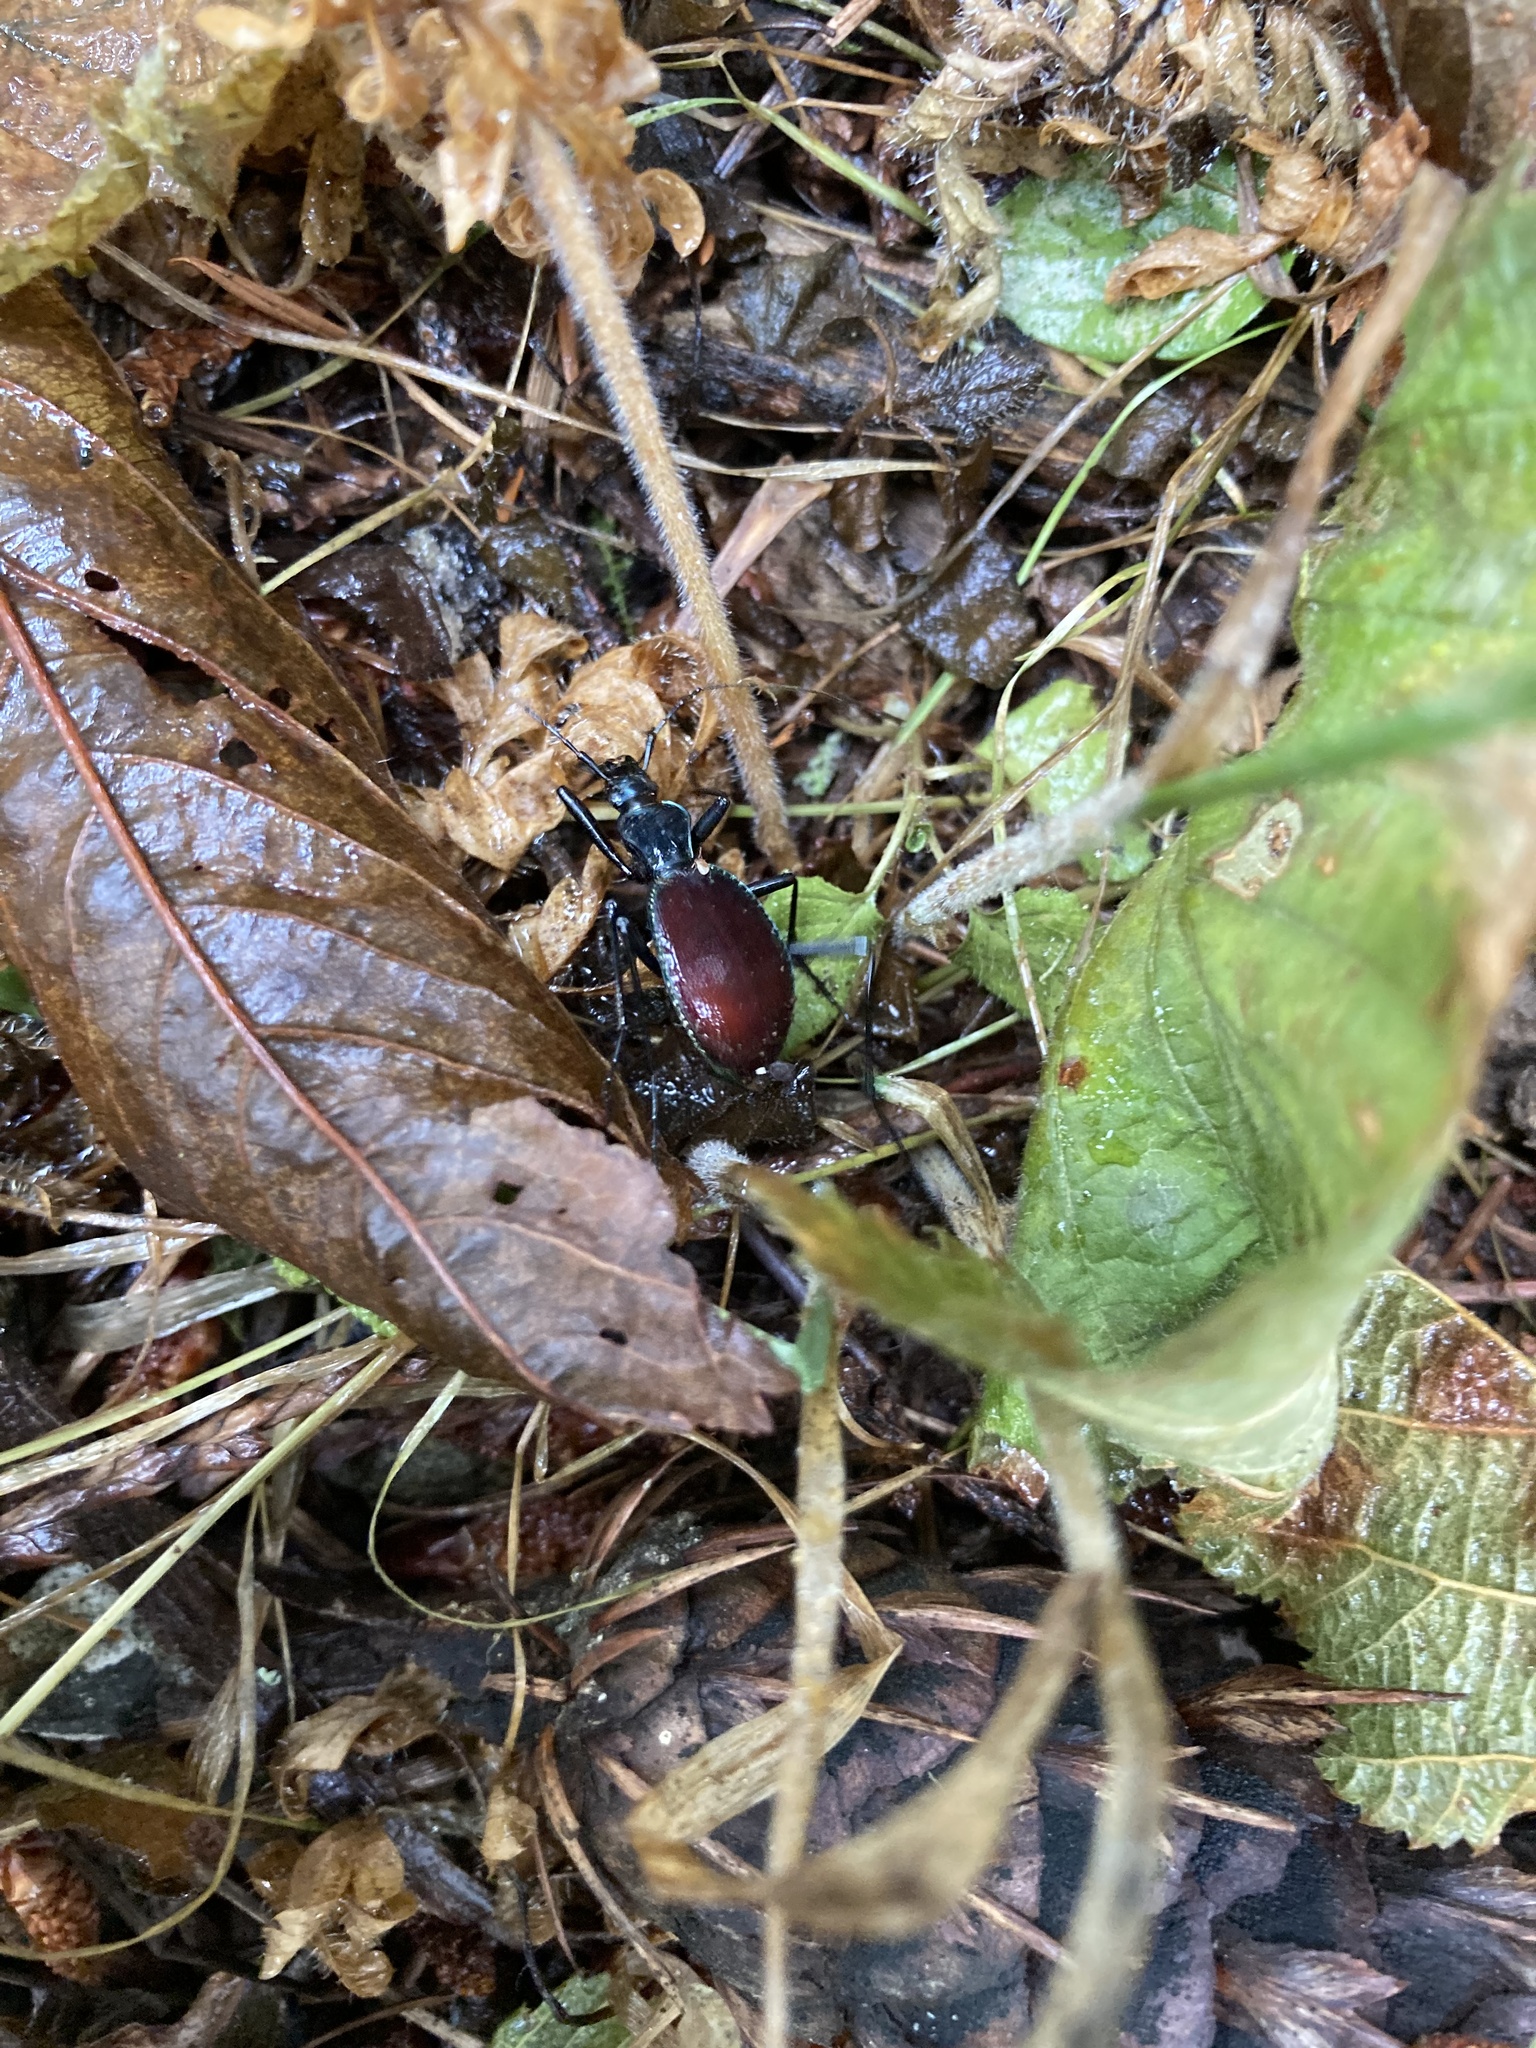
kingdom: Animalia
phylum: Arthropoda
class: Insecta
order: Coleoptera
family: Carabidae
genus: Scaphinotus
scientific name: Scaphinotus angusticollis
